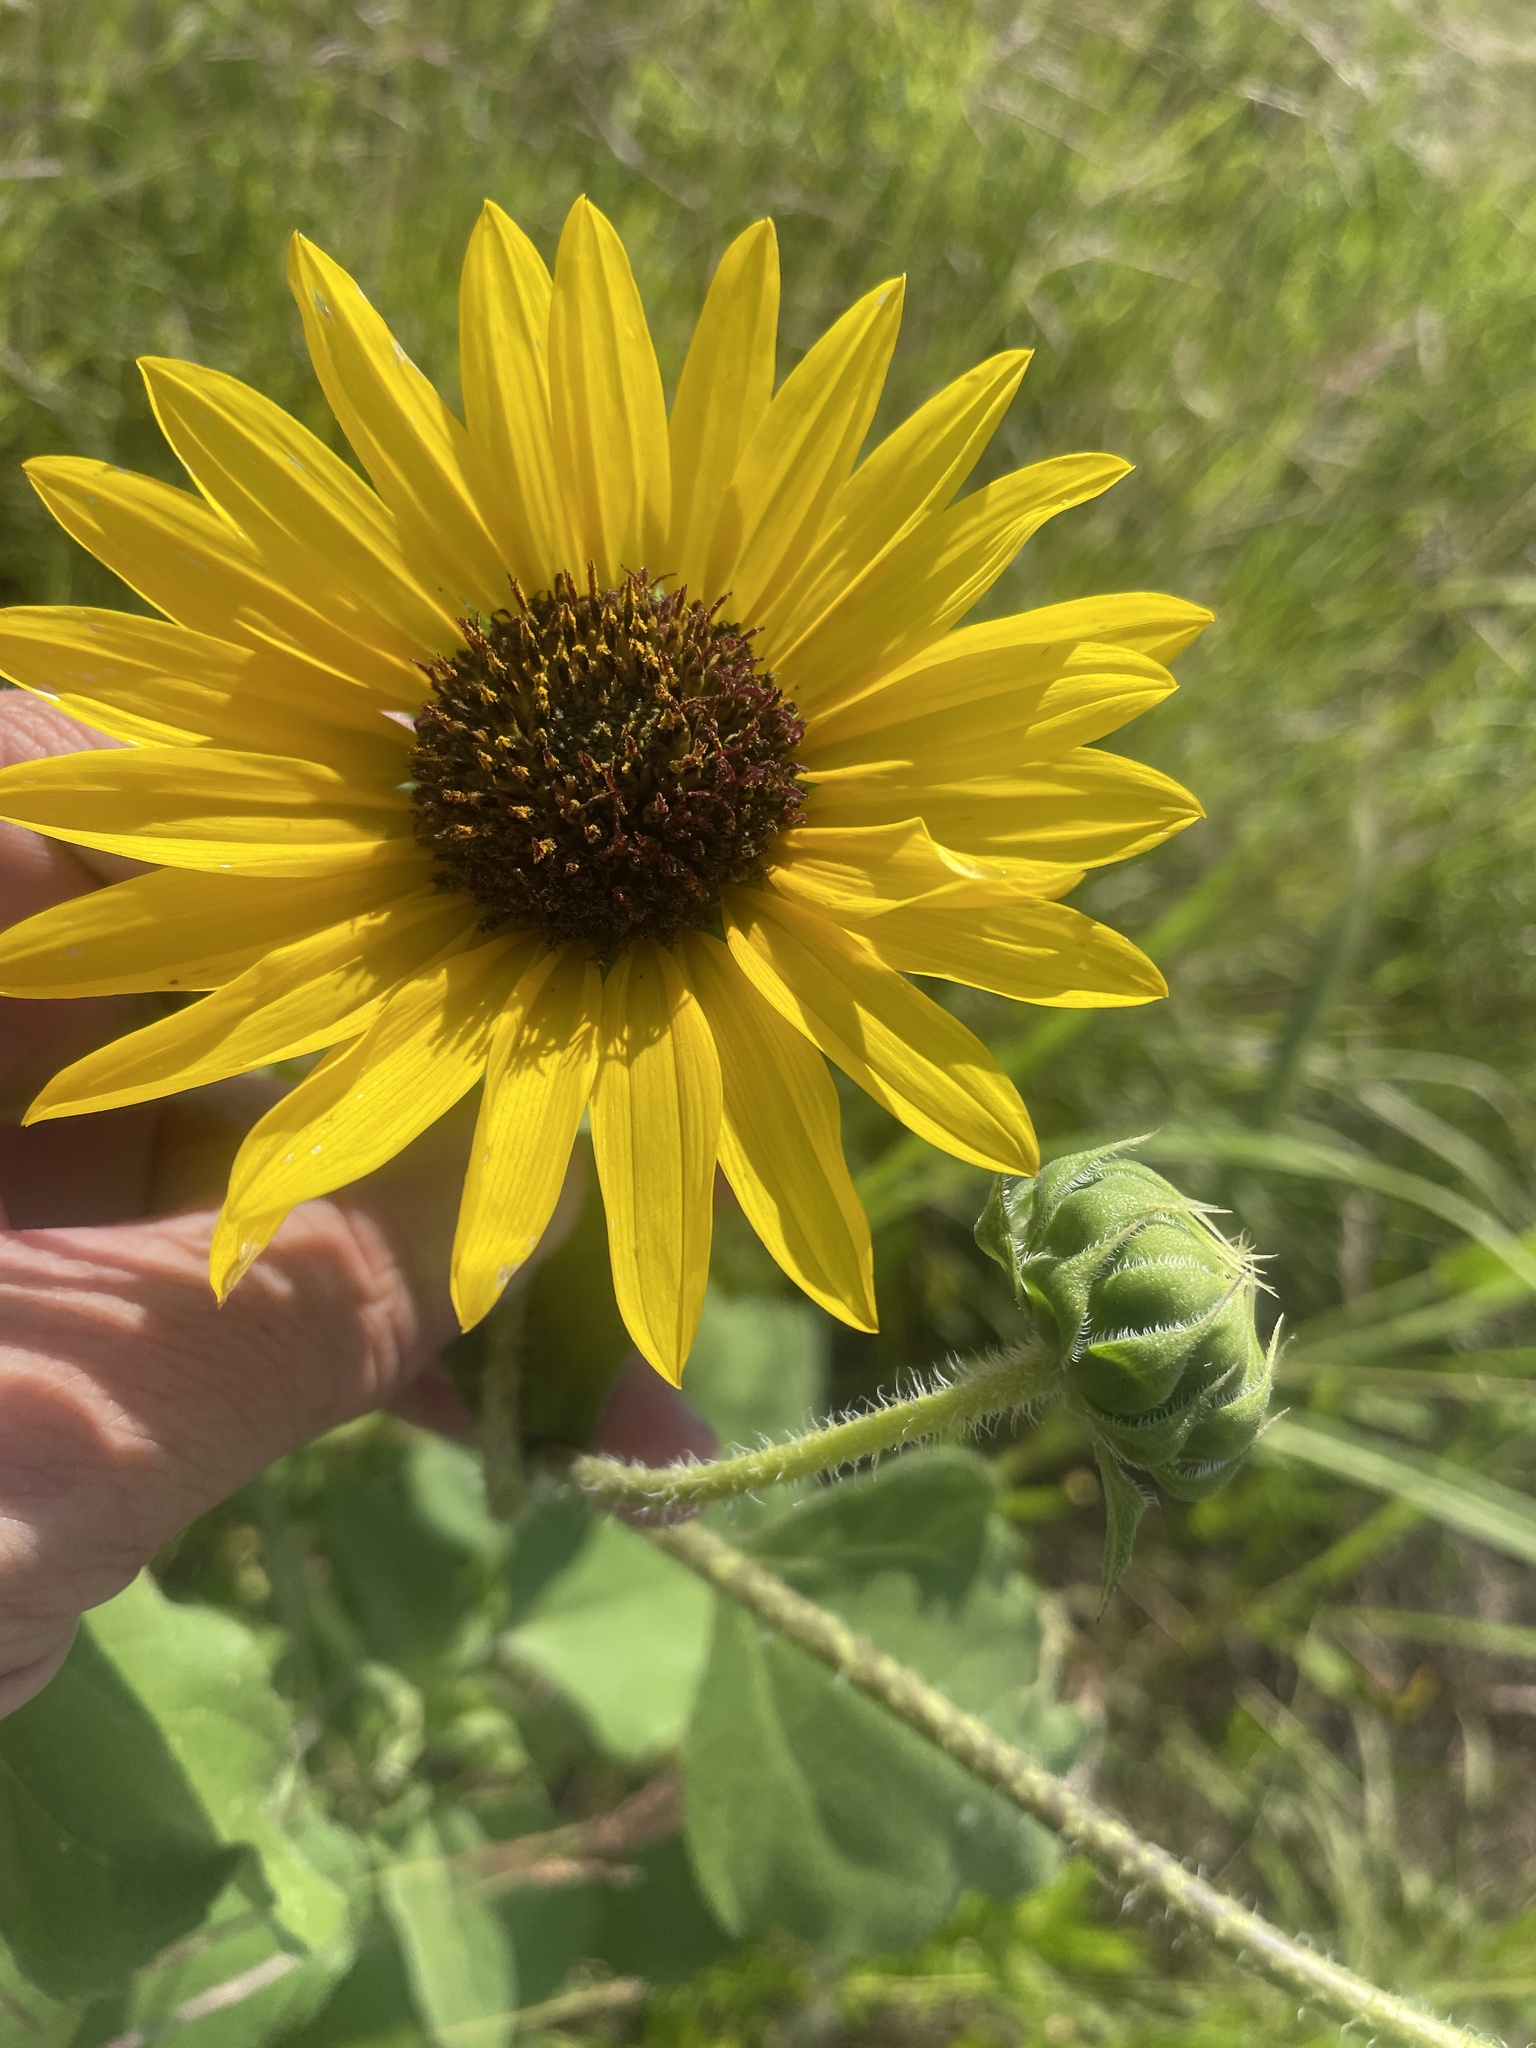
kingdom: Plantae
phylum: Tracheophyta
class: Magnoliopsida
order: Asterales
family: Asteraceae
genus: Helianthus
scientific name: Helianthus annuus
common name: Sunflower
